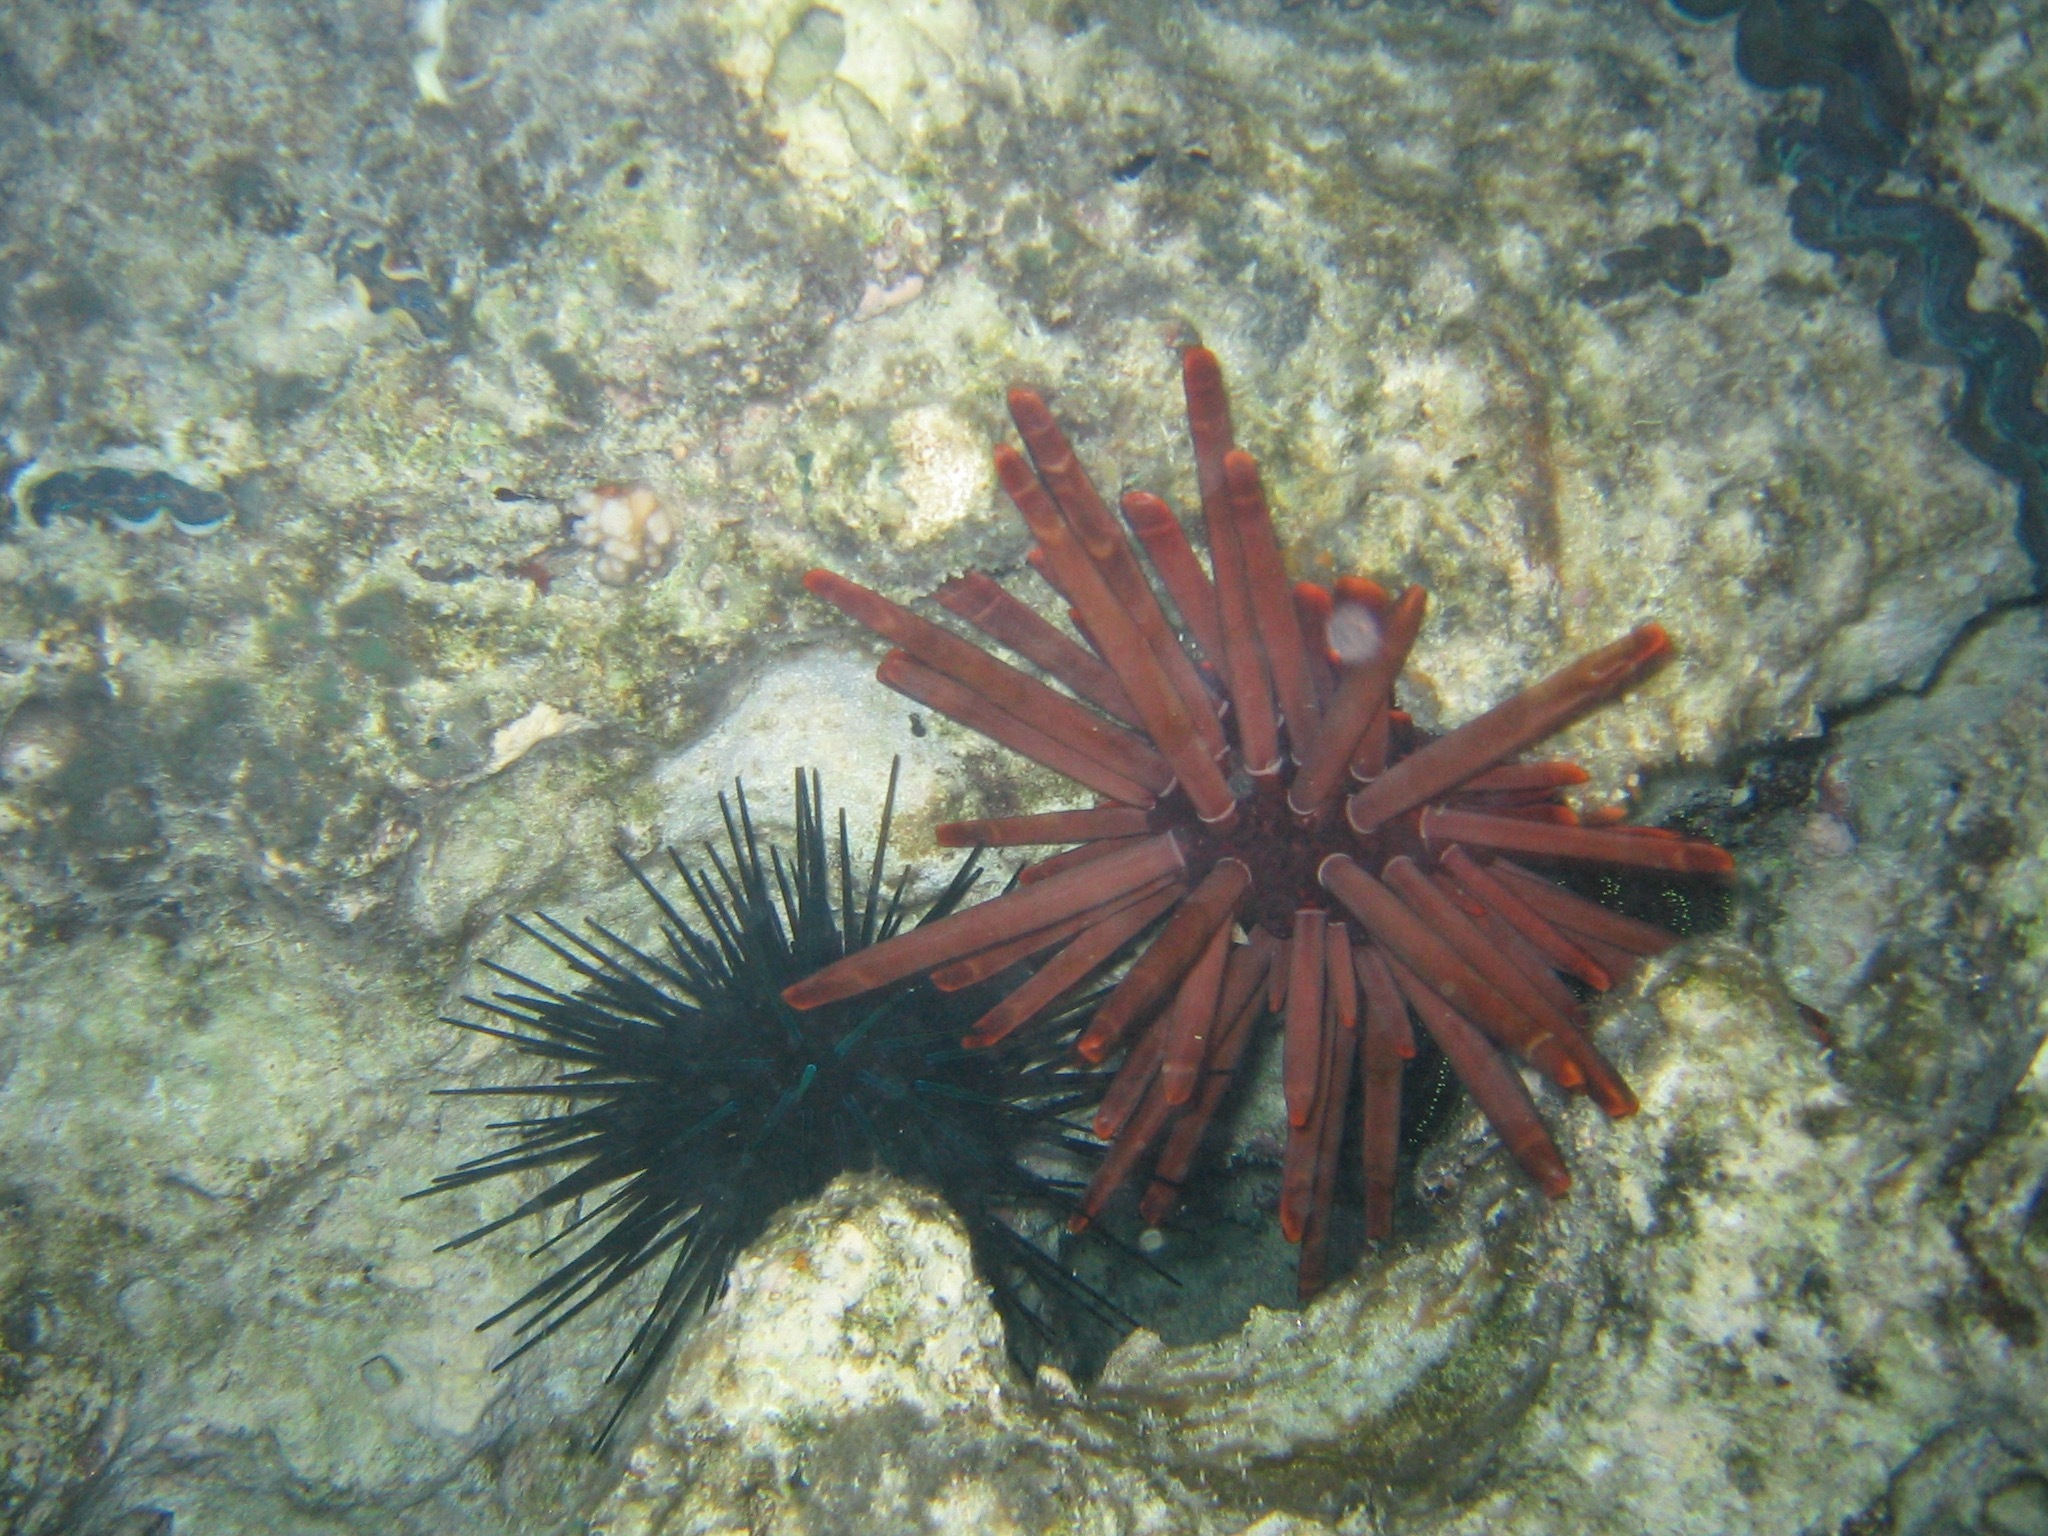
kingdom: Animalia
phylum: Echinodermata
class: Echinoidea
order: Camarodonta
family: Echinometridae
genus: Heterocentrotus
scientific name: Heterocentrotus mamillatus
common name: Slate pencil urchin
